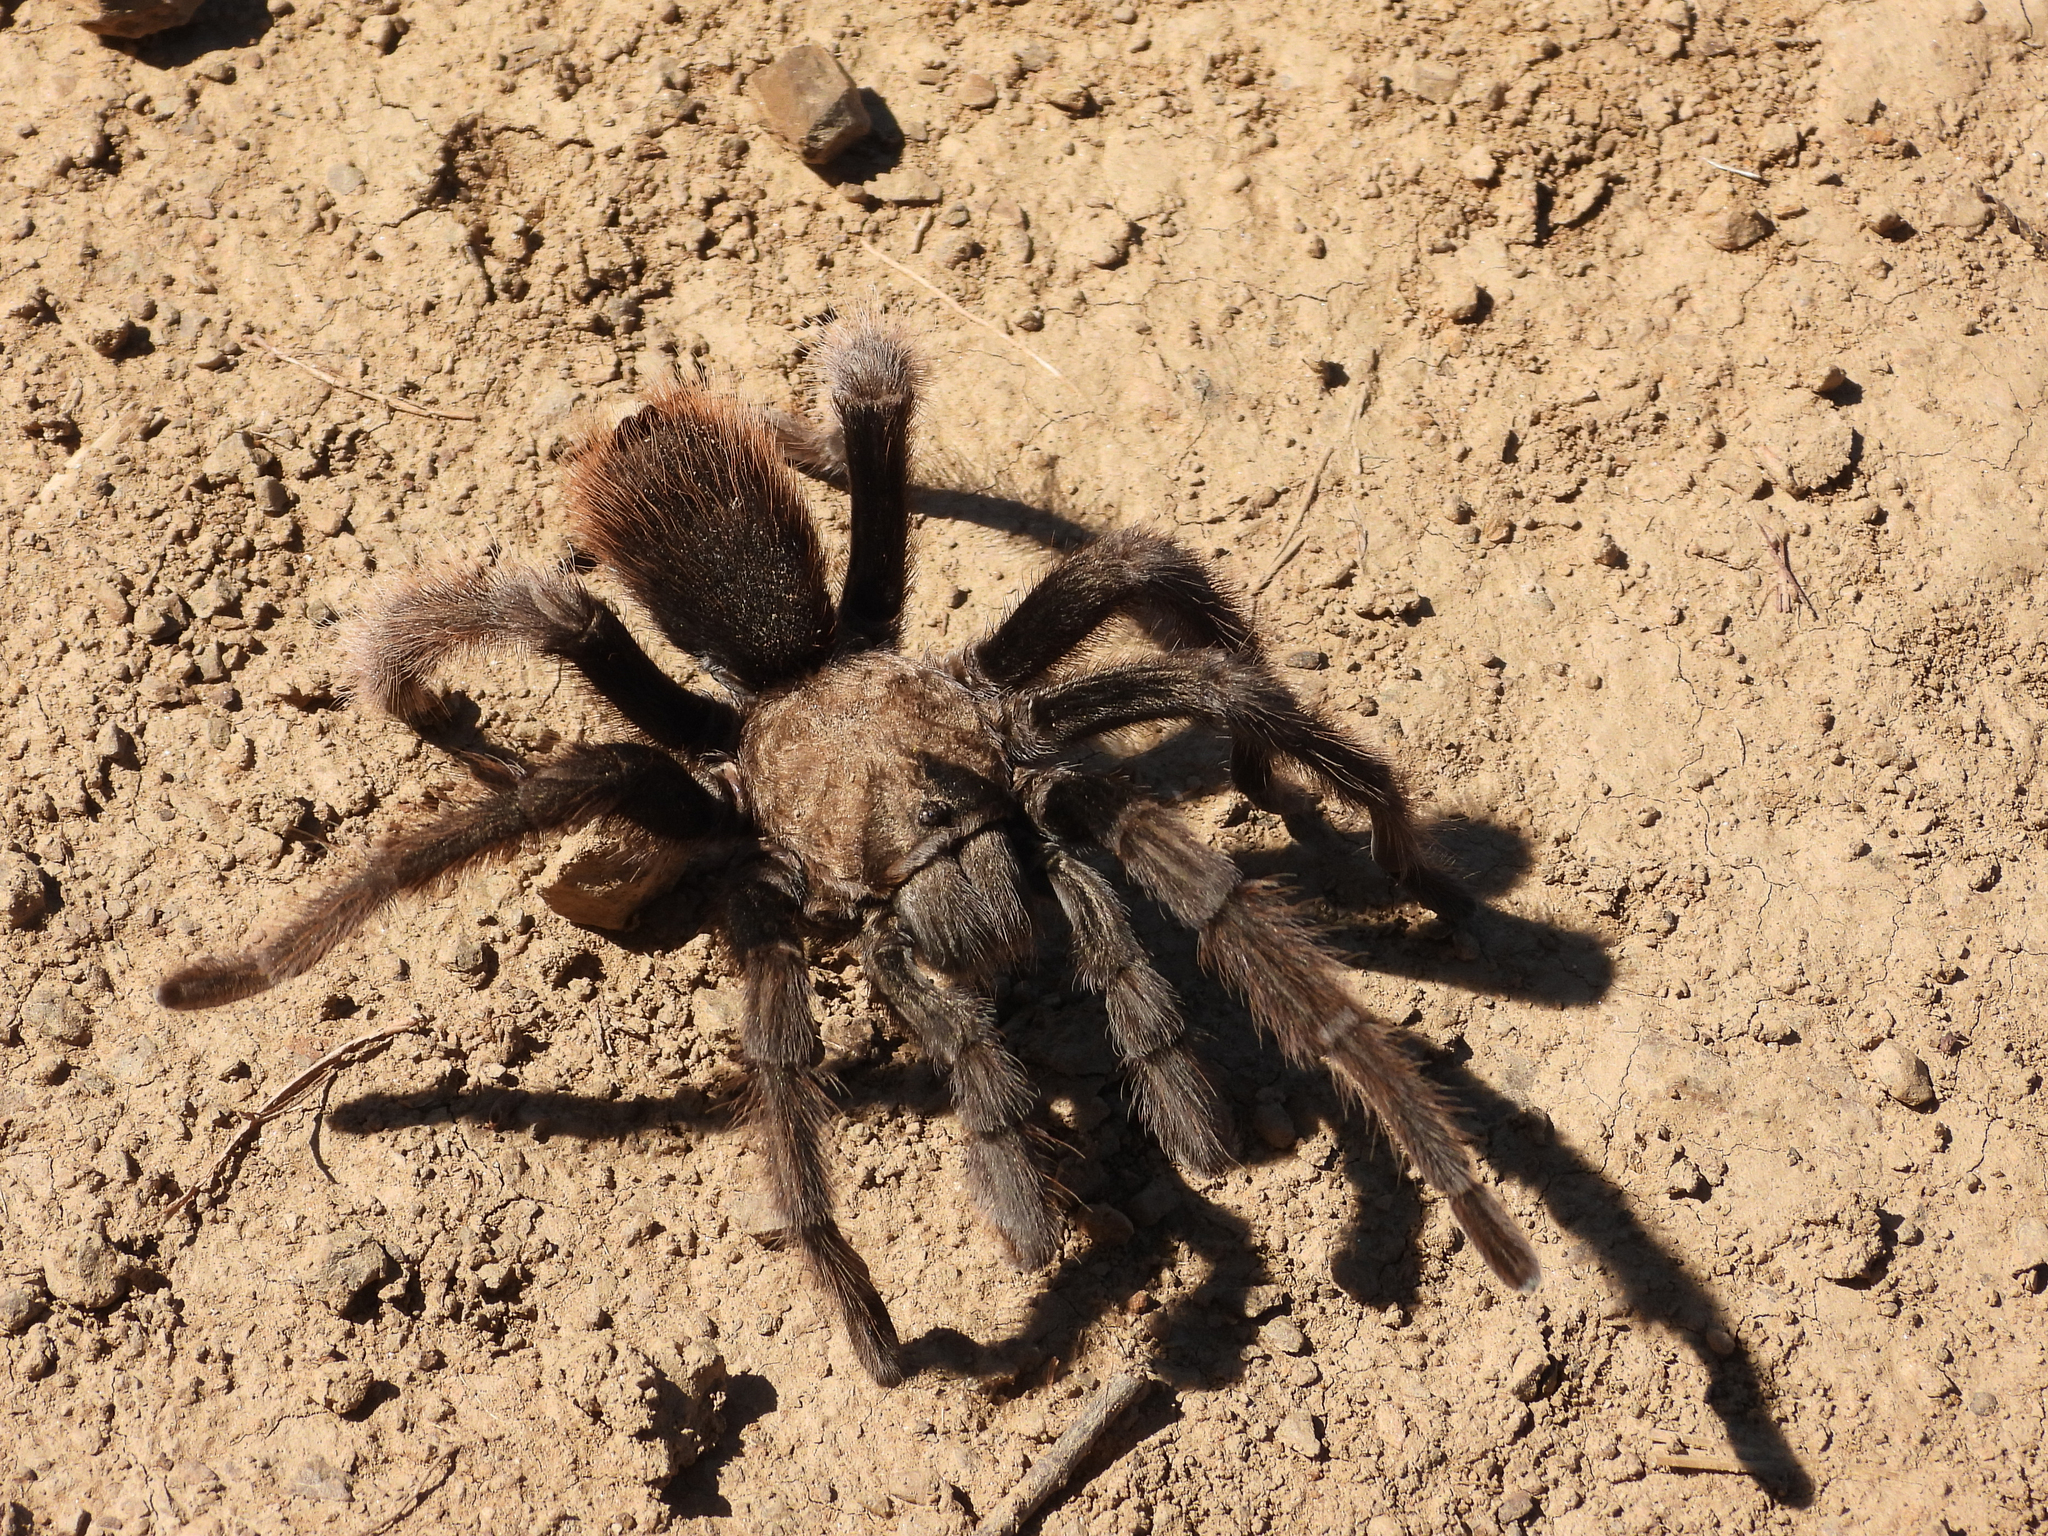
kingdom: Animalia
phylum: Arthropoda
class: Arachnida
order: Araneae
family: Theraphosidae
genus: Aphonopelma
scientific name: Aphonopelma eutylenum
